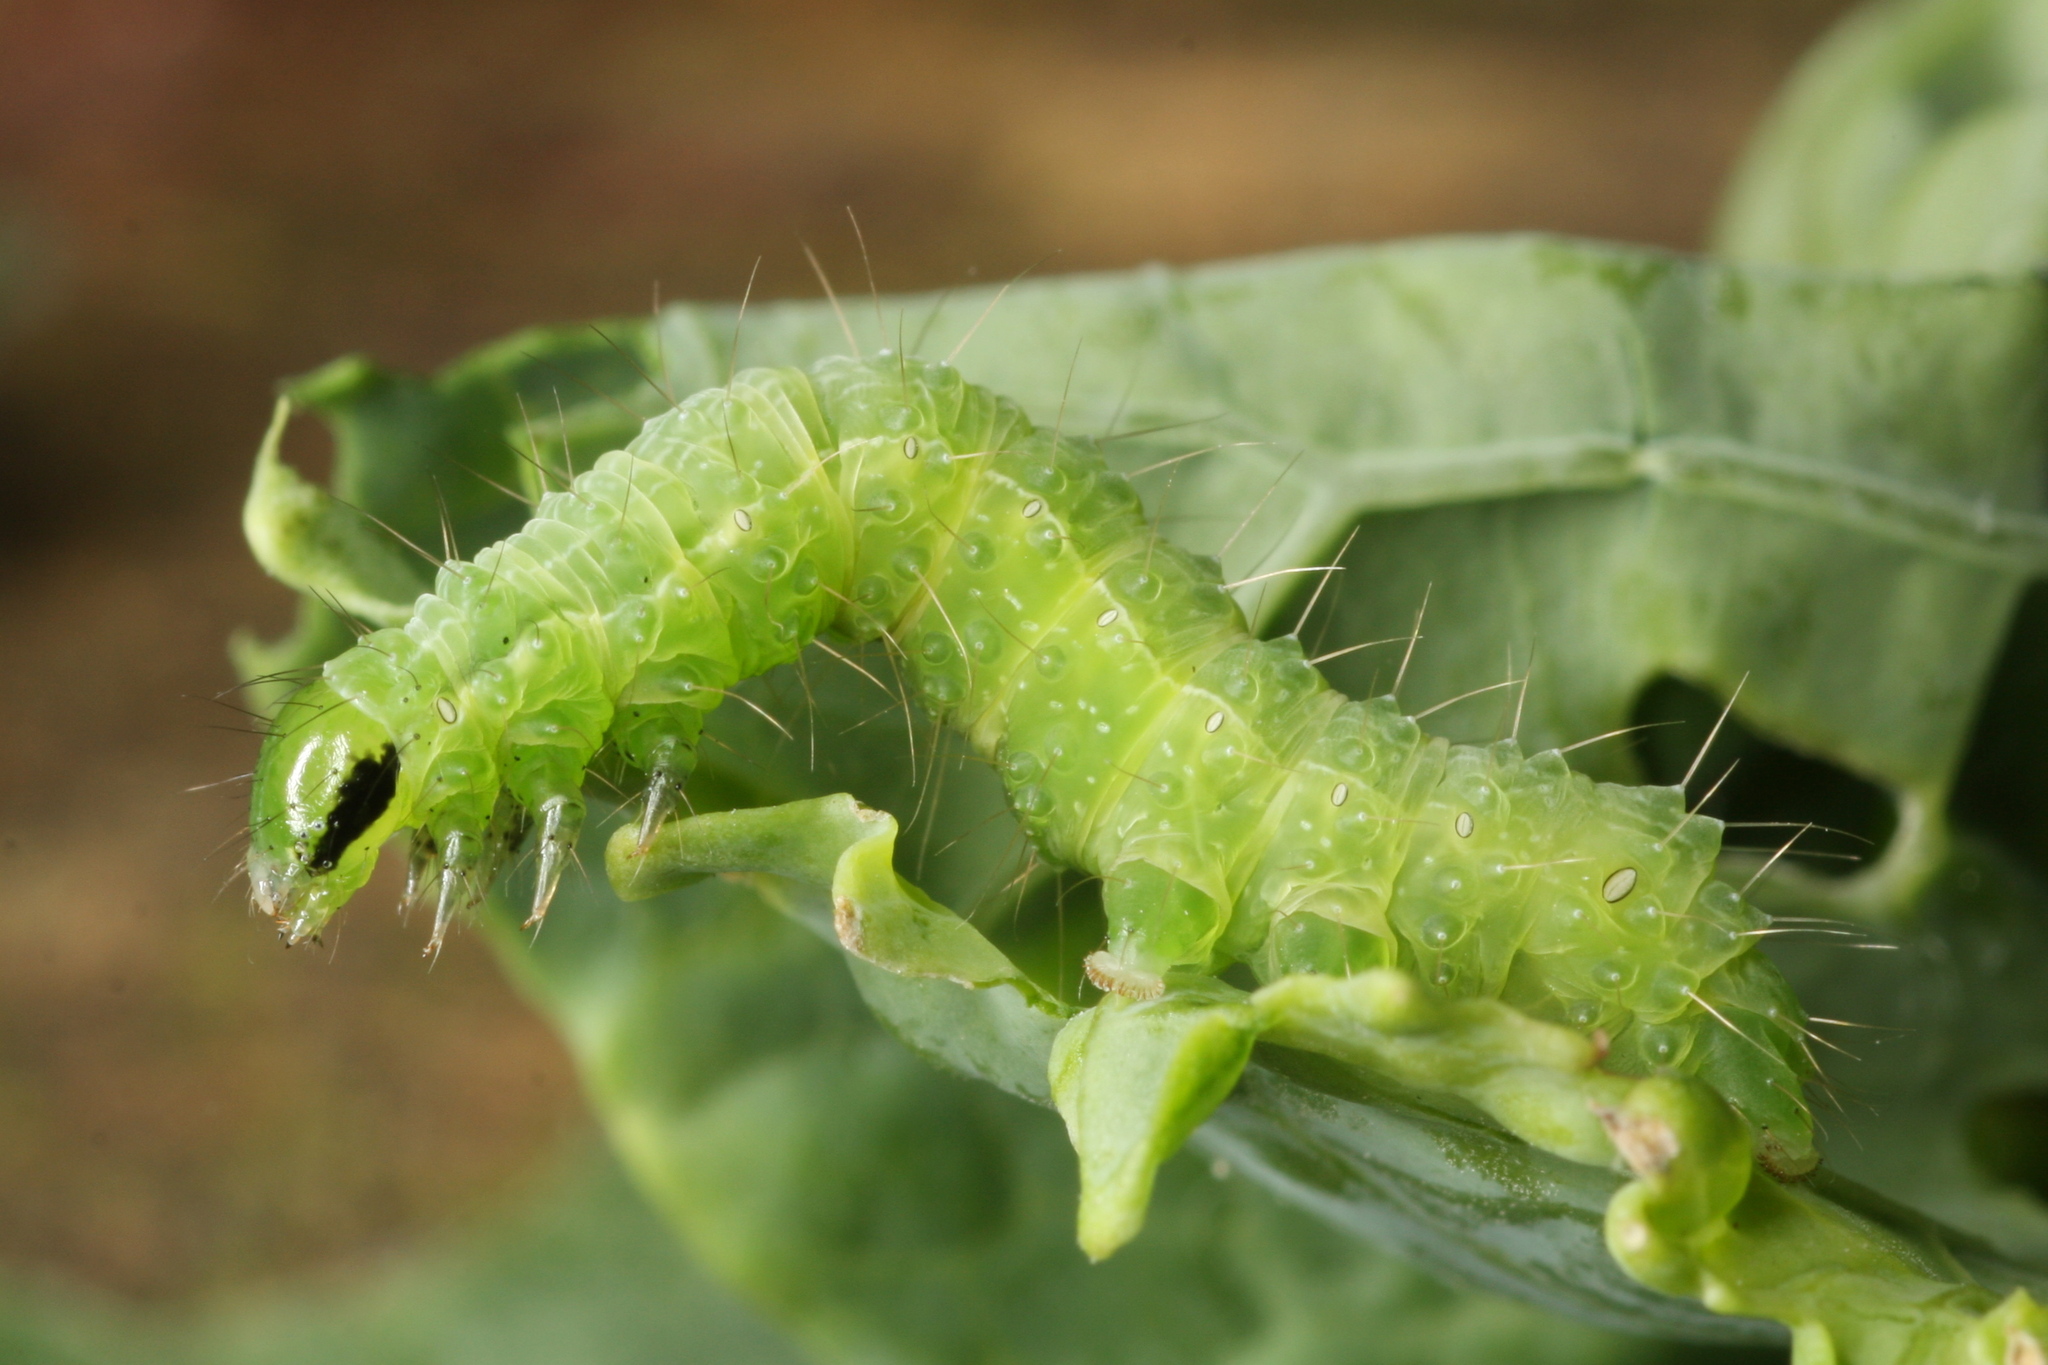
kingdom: Animalia
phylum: Arthropoda
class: Insecta
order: Lepidoptera
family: Noctuidae
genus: Autographa
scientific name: Autographa gamma
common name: Silver y
